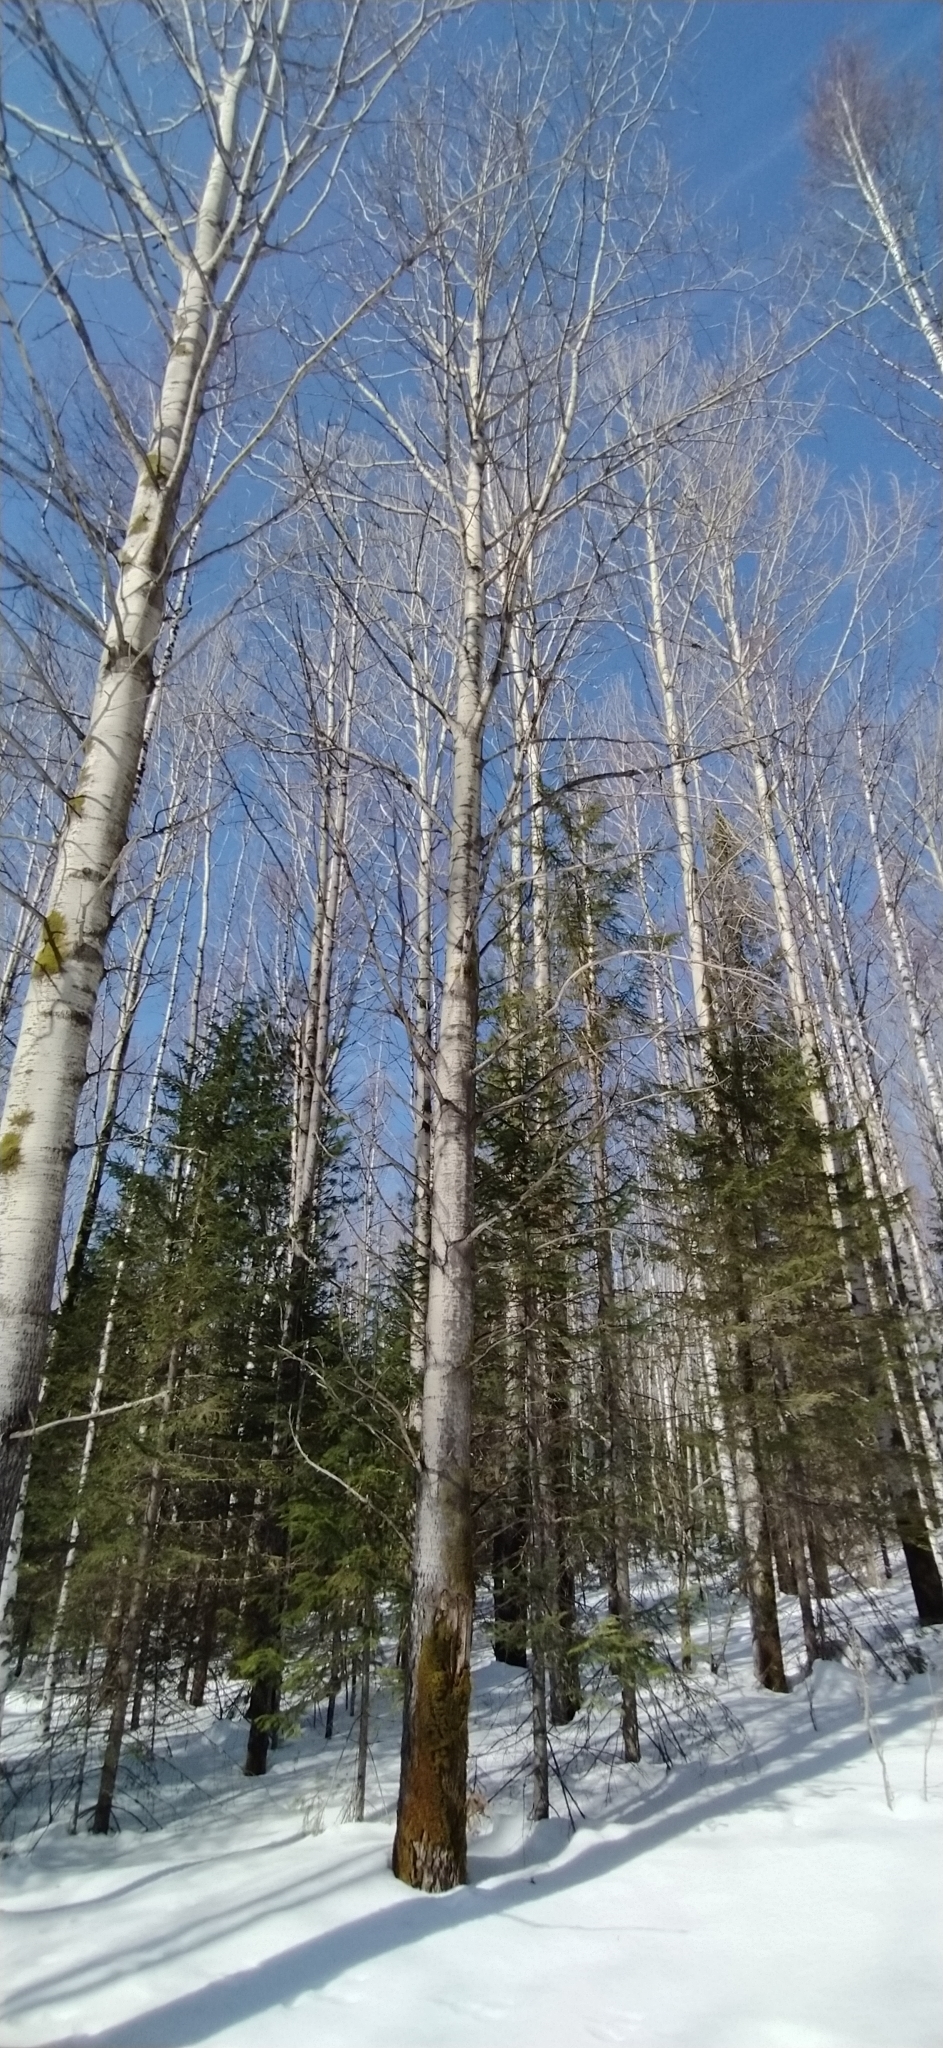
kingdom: Plantae
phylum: Tracheophyta
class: Magnoliopsida
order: Malpighiales
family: Salicaceae
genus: Populus
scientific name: Populus tremula
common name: European aspen
